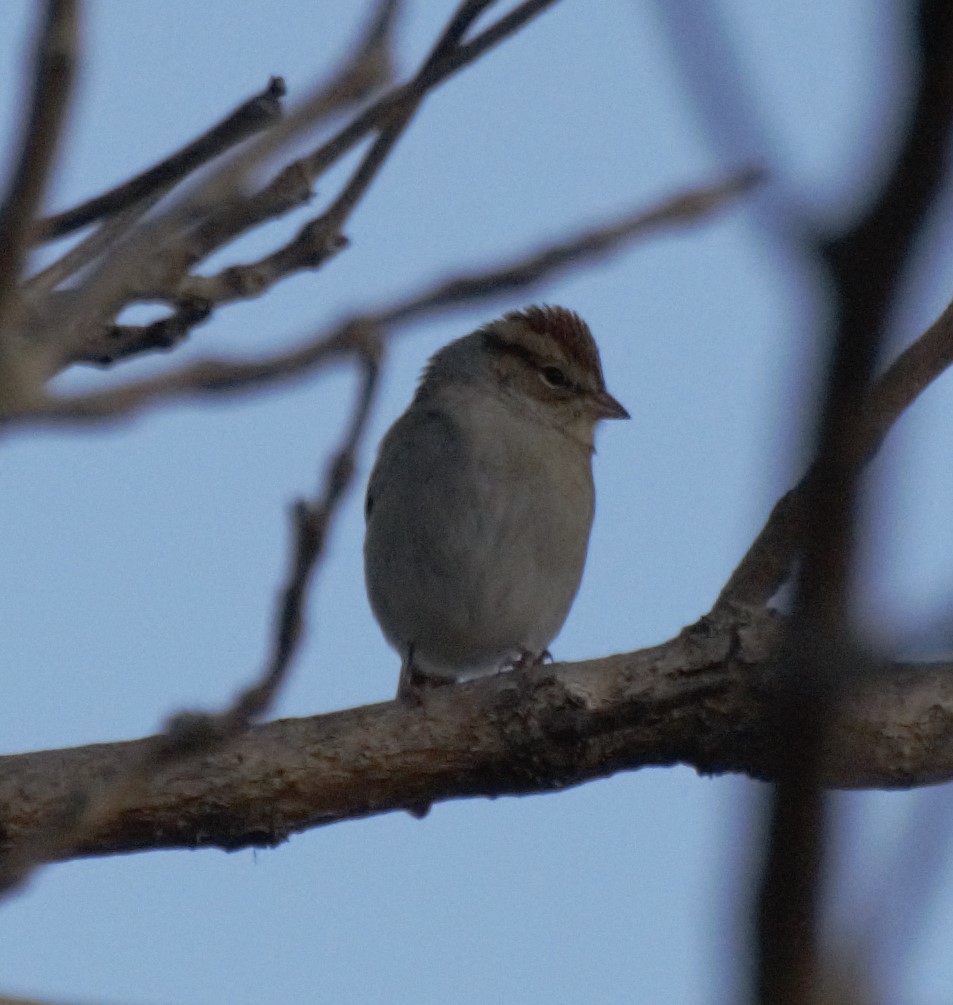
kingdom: Animalia
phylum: Chordata
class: Aves
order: Passeriformes
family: Passerellidae
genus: Spizella
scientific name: Spizella passerina
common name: Chipping sparrow
